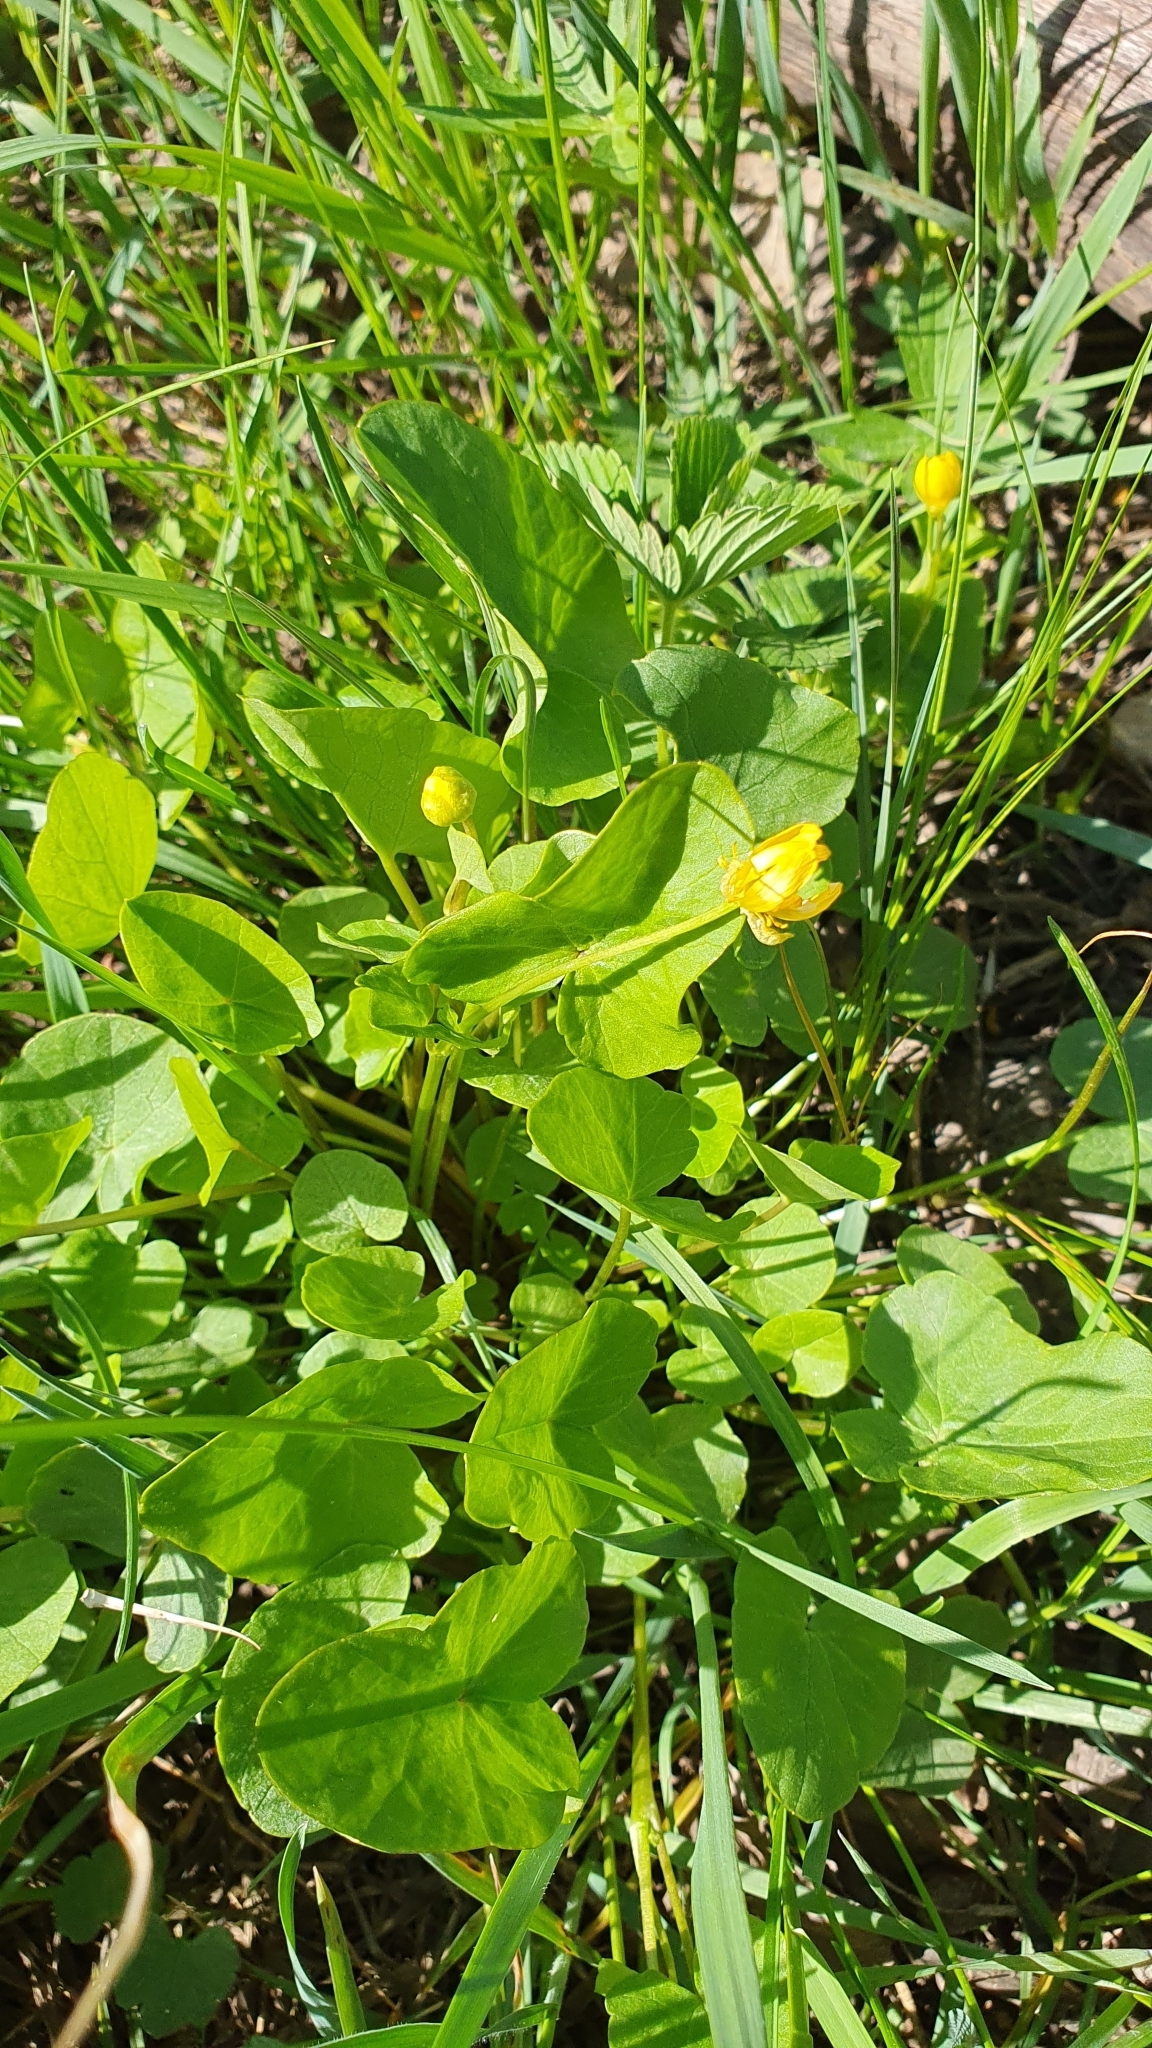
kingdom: Plantae
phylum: Tracheophyta
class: Magnoliopsida
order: Ranunculales
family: Ranunculaceae
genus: Ficaria
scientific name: Ficaria verna
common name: Lesser celandine
